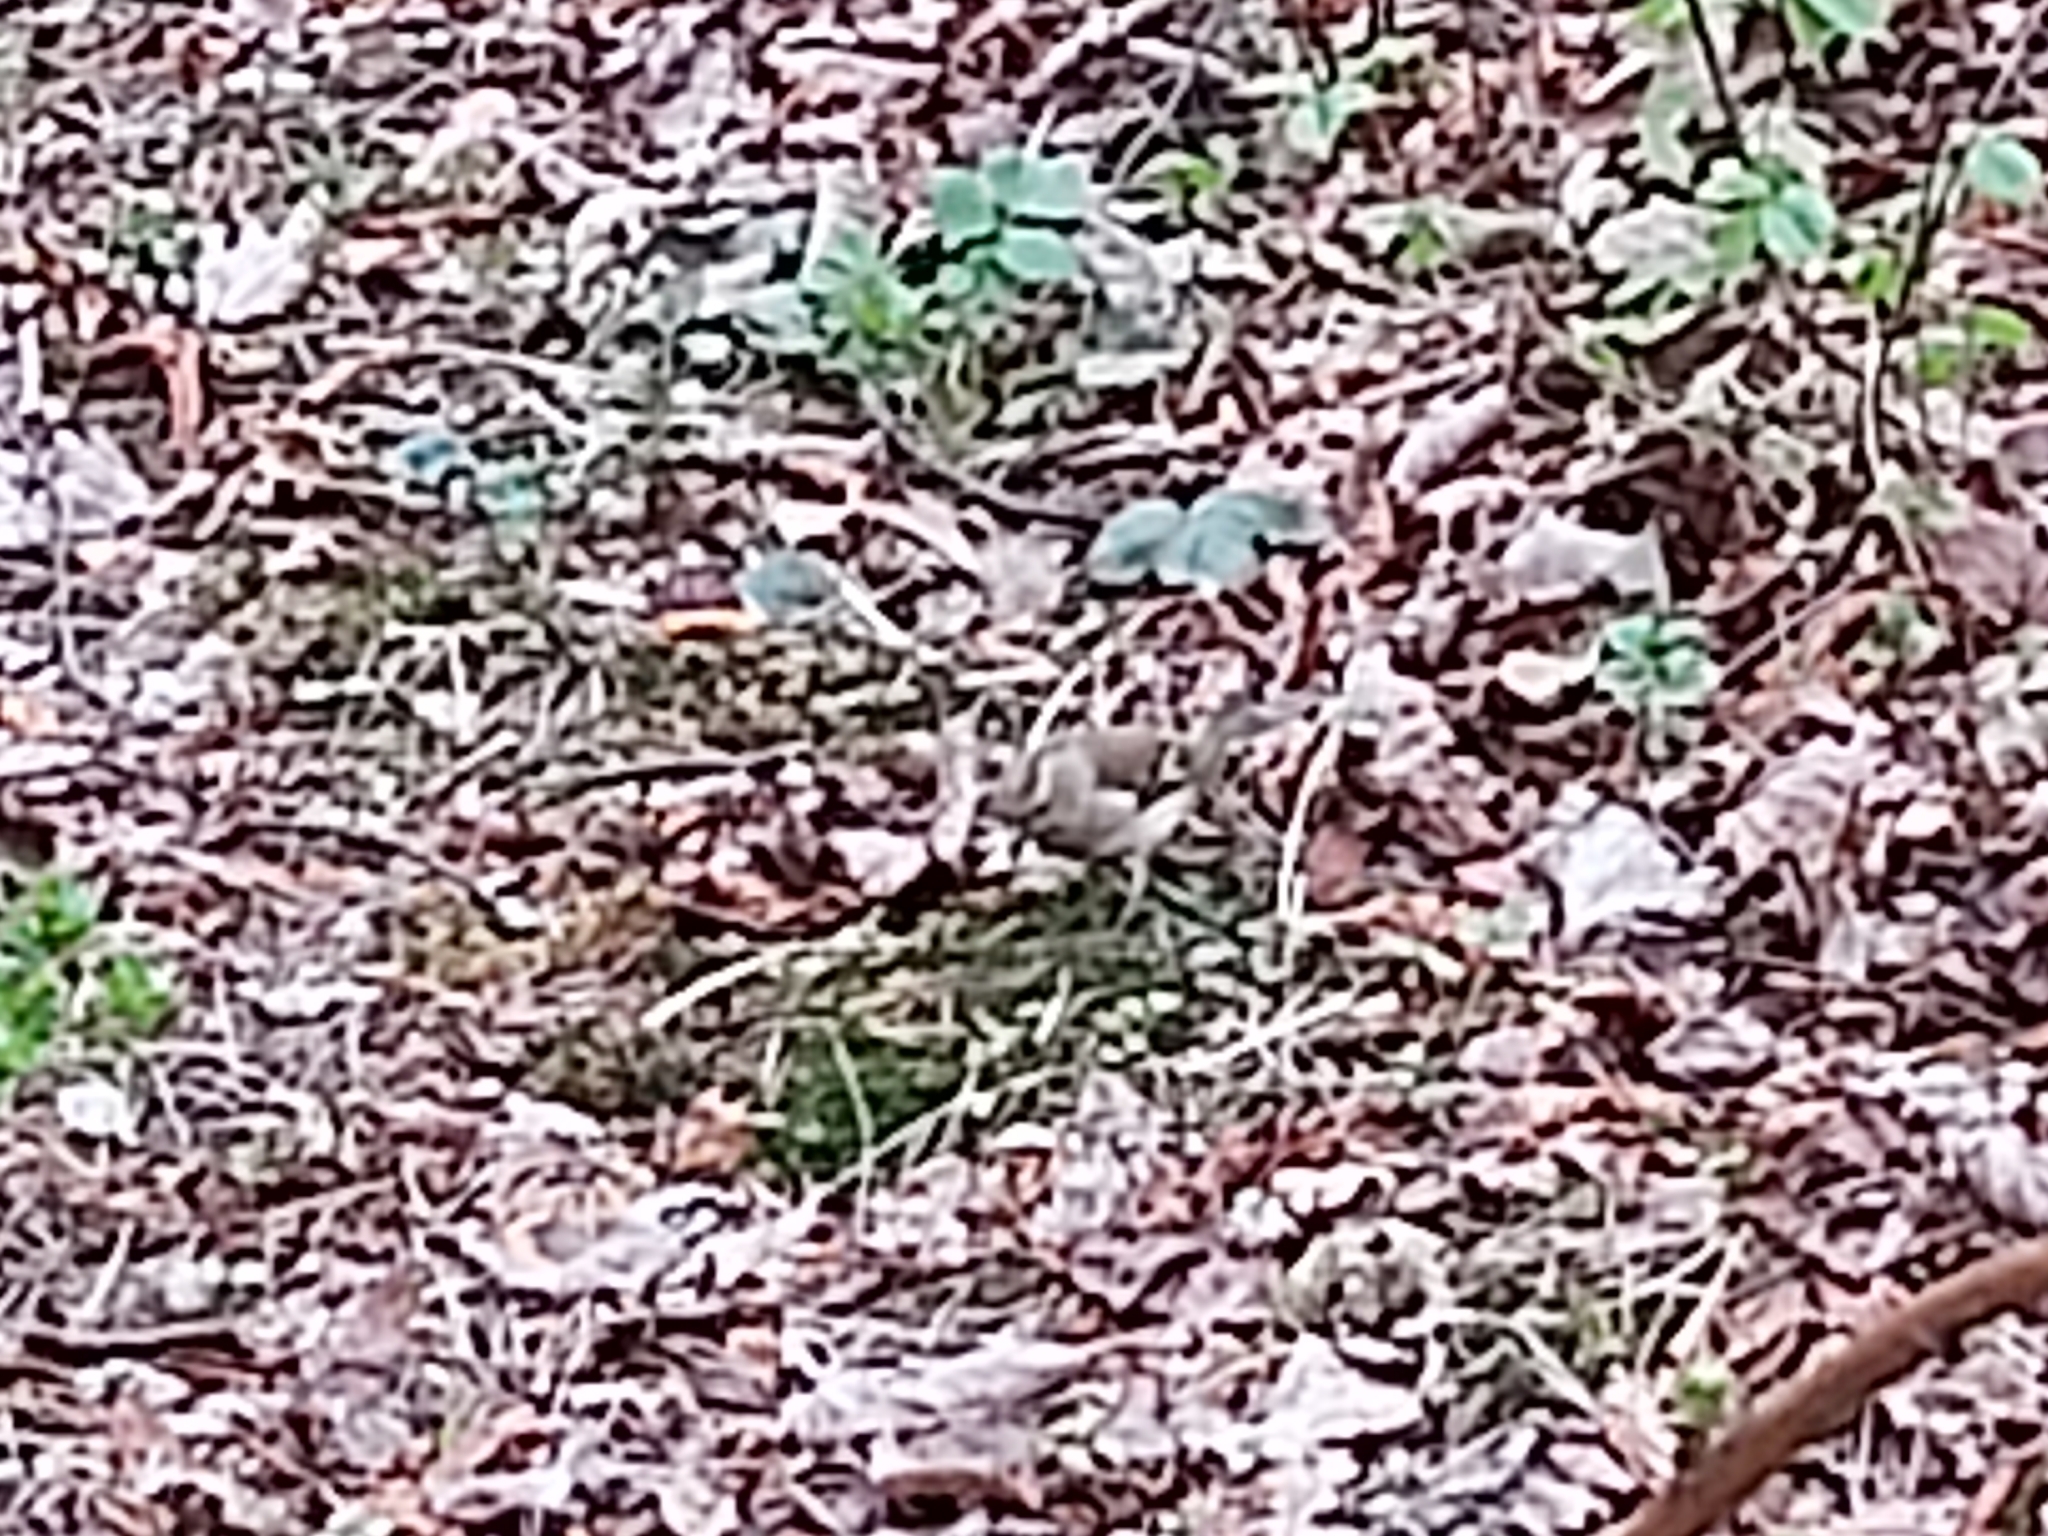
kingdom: Animalia
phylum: Chordata
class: Aves
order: Passeriformes
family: Fringillidae
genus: Fringilla
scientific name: Fringilla coelebs
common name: Common chaffinch
